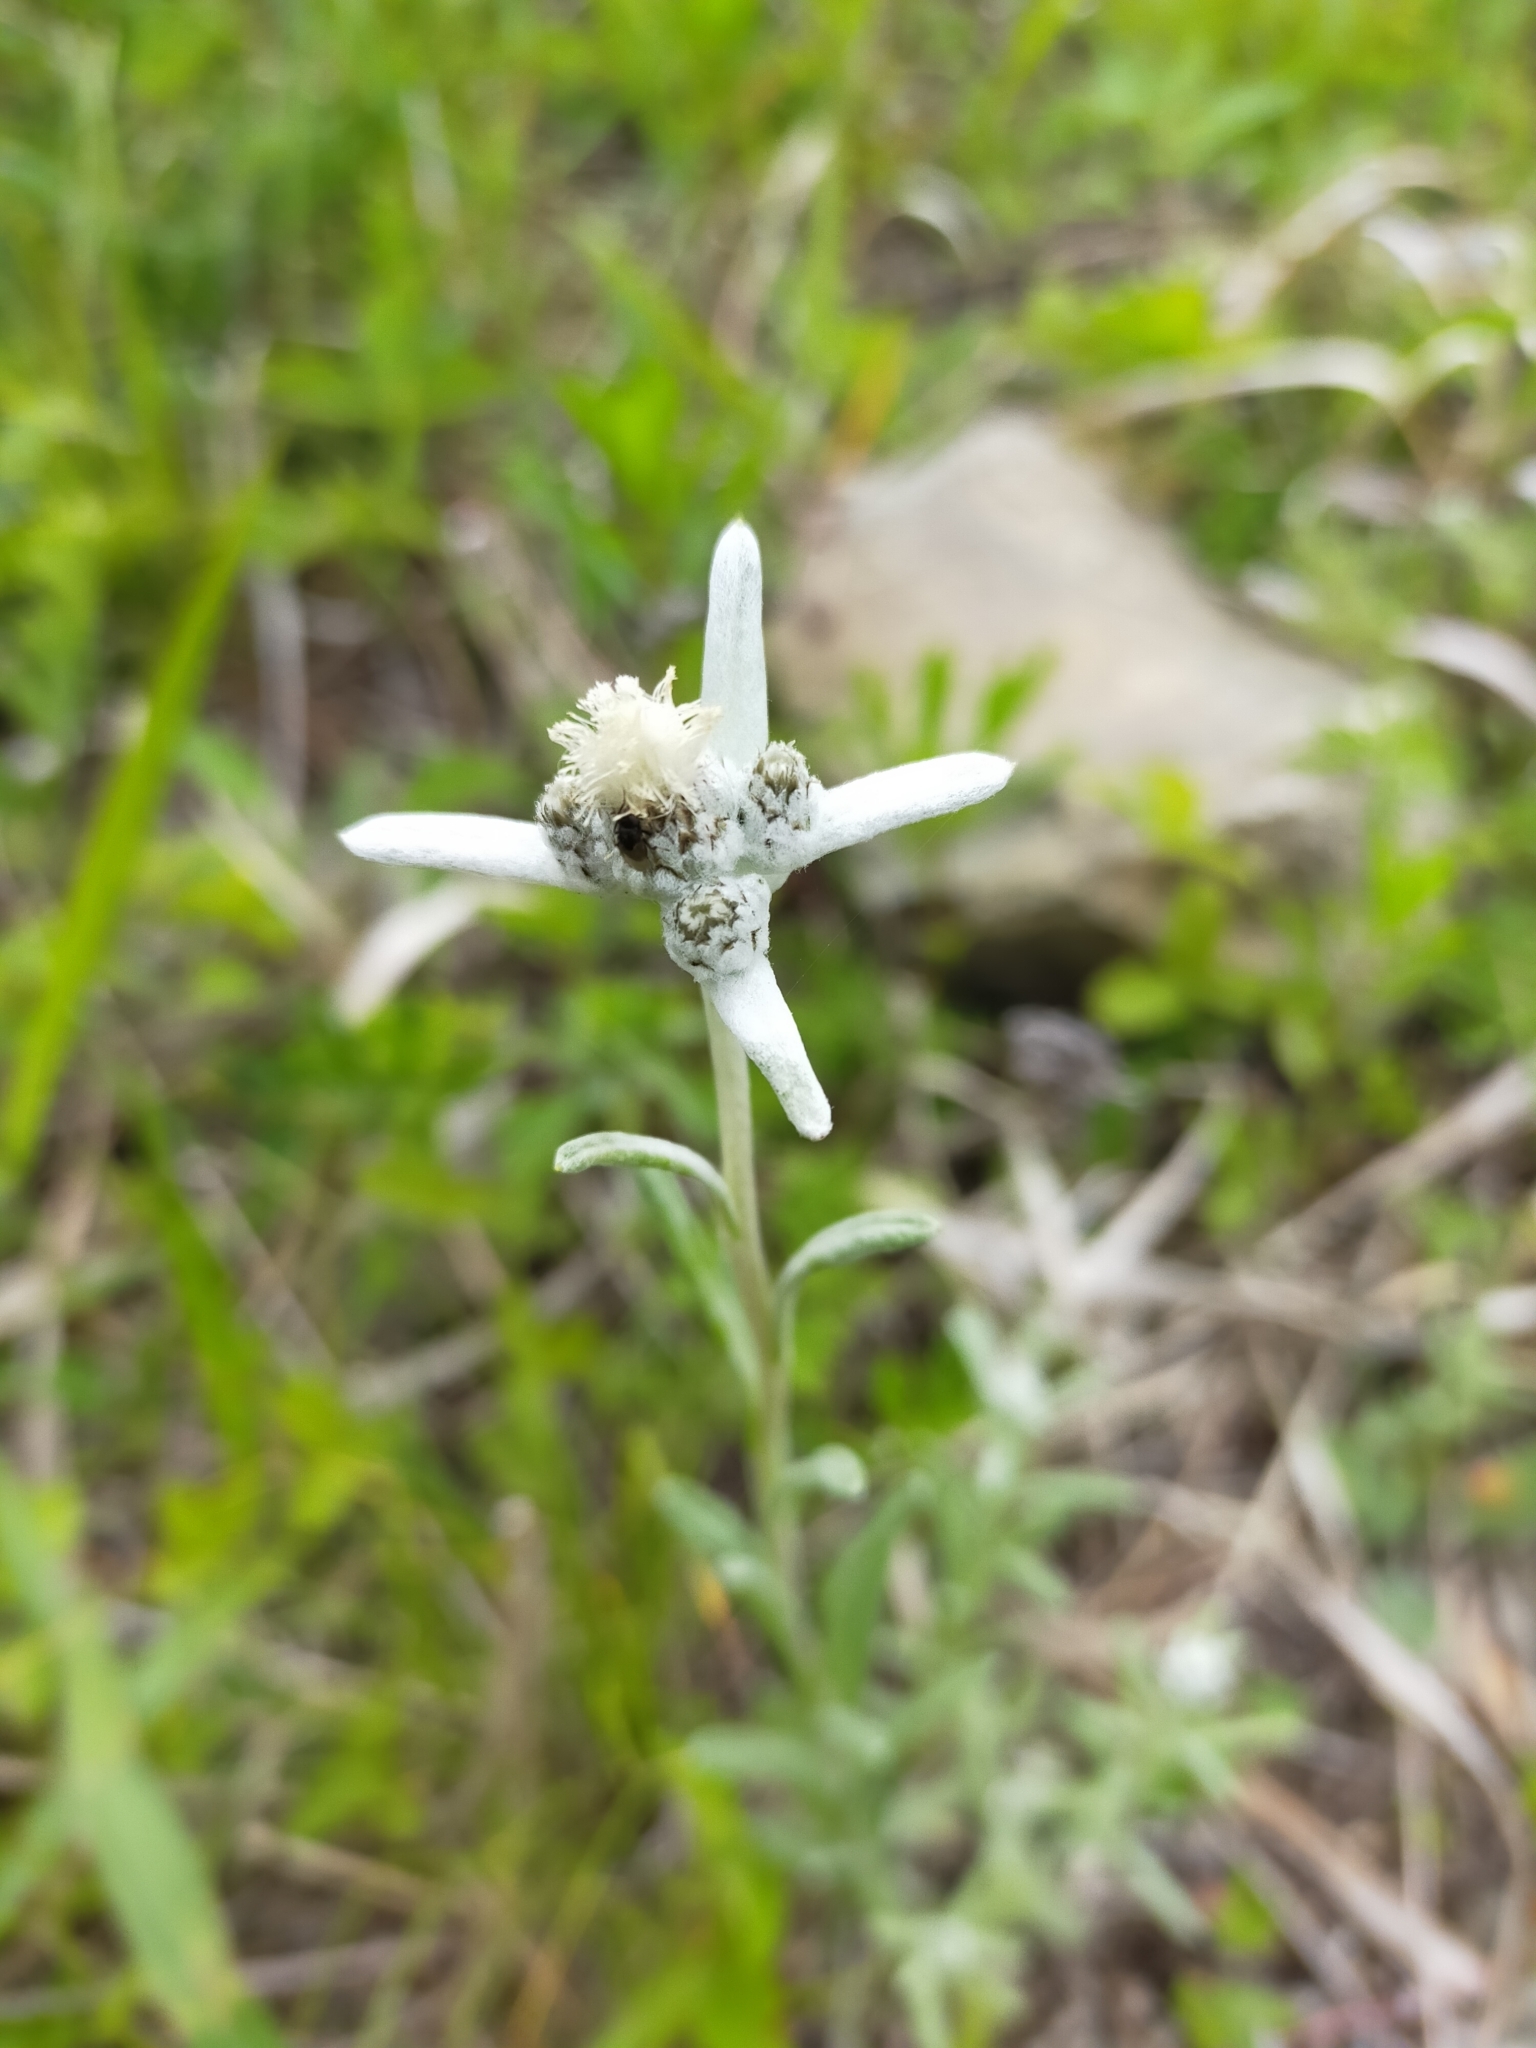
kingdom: Plantae
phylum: Tracheophyta
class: Magnoliopsida
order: Asterales
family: Asteraceae
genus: Leontopodium
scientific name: Leontopodium leontopodioides
